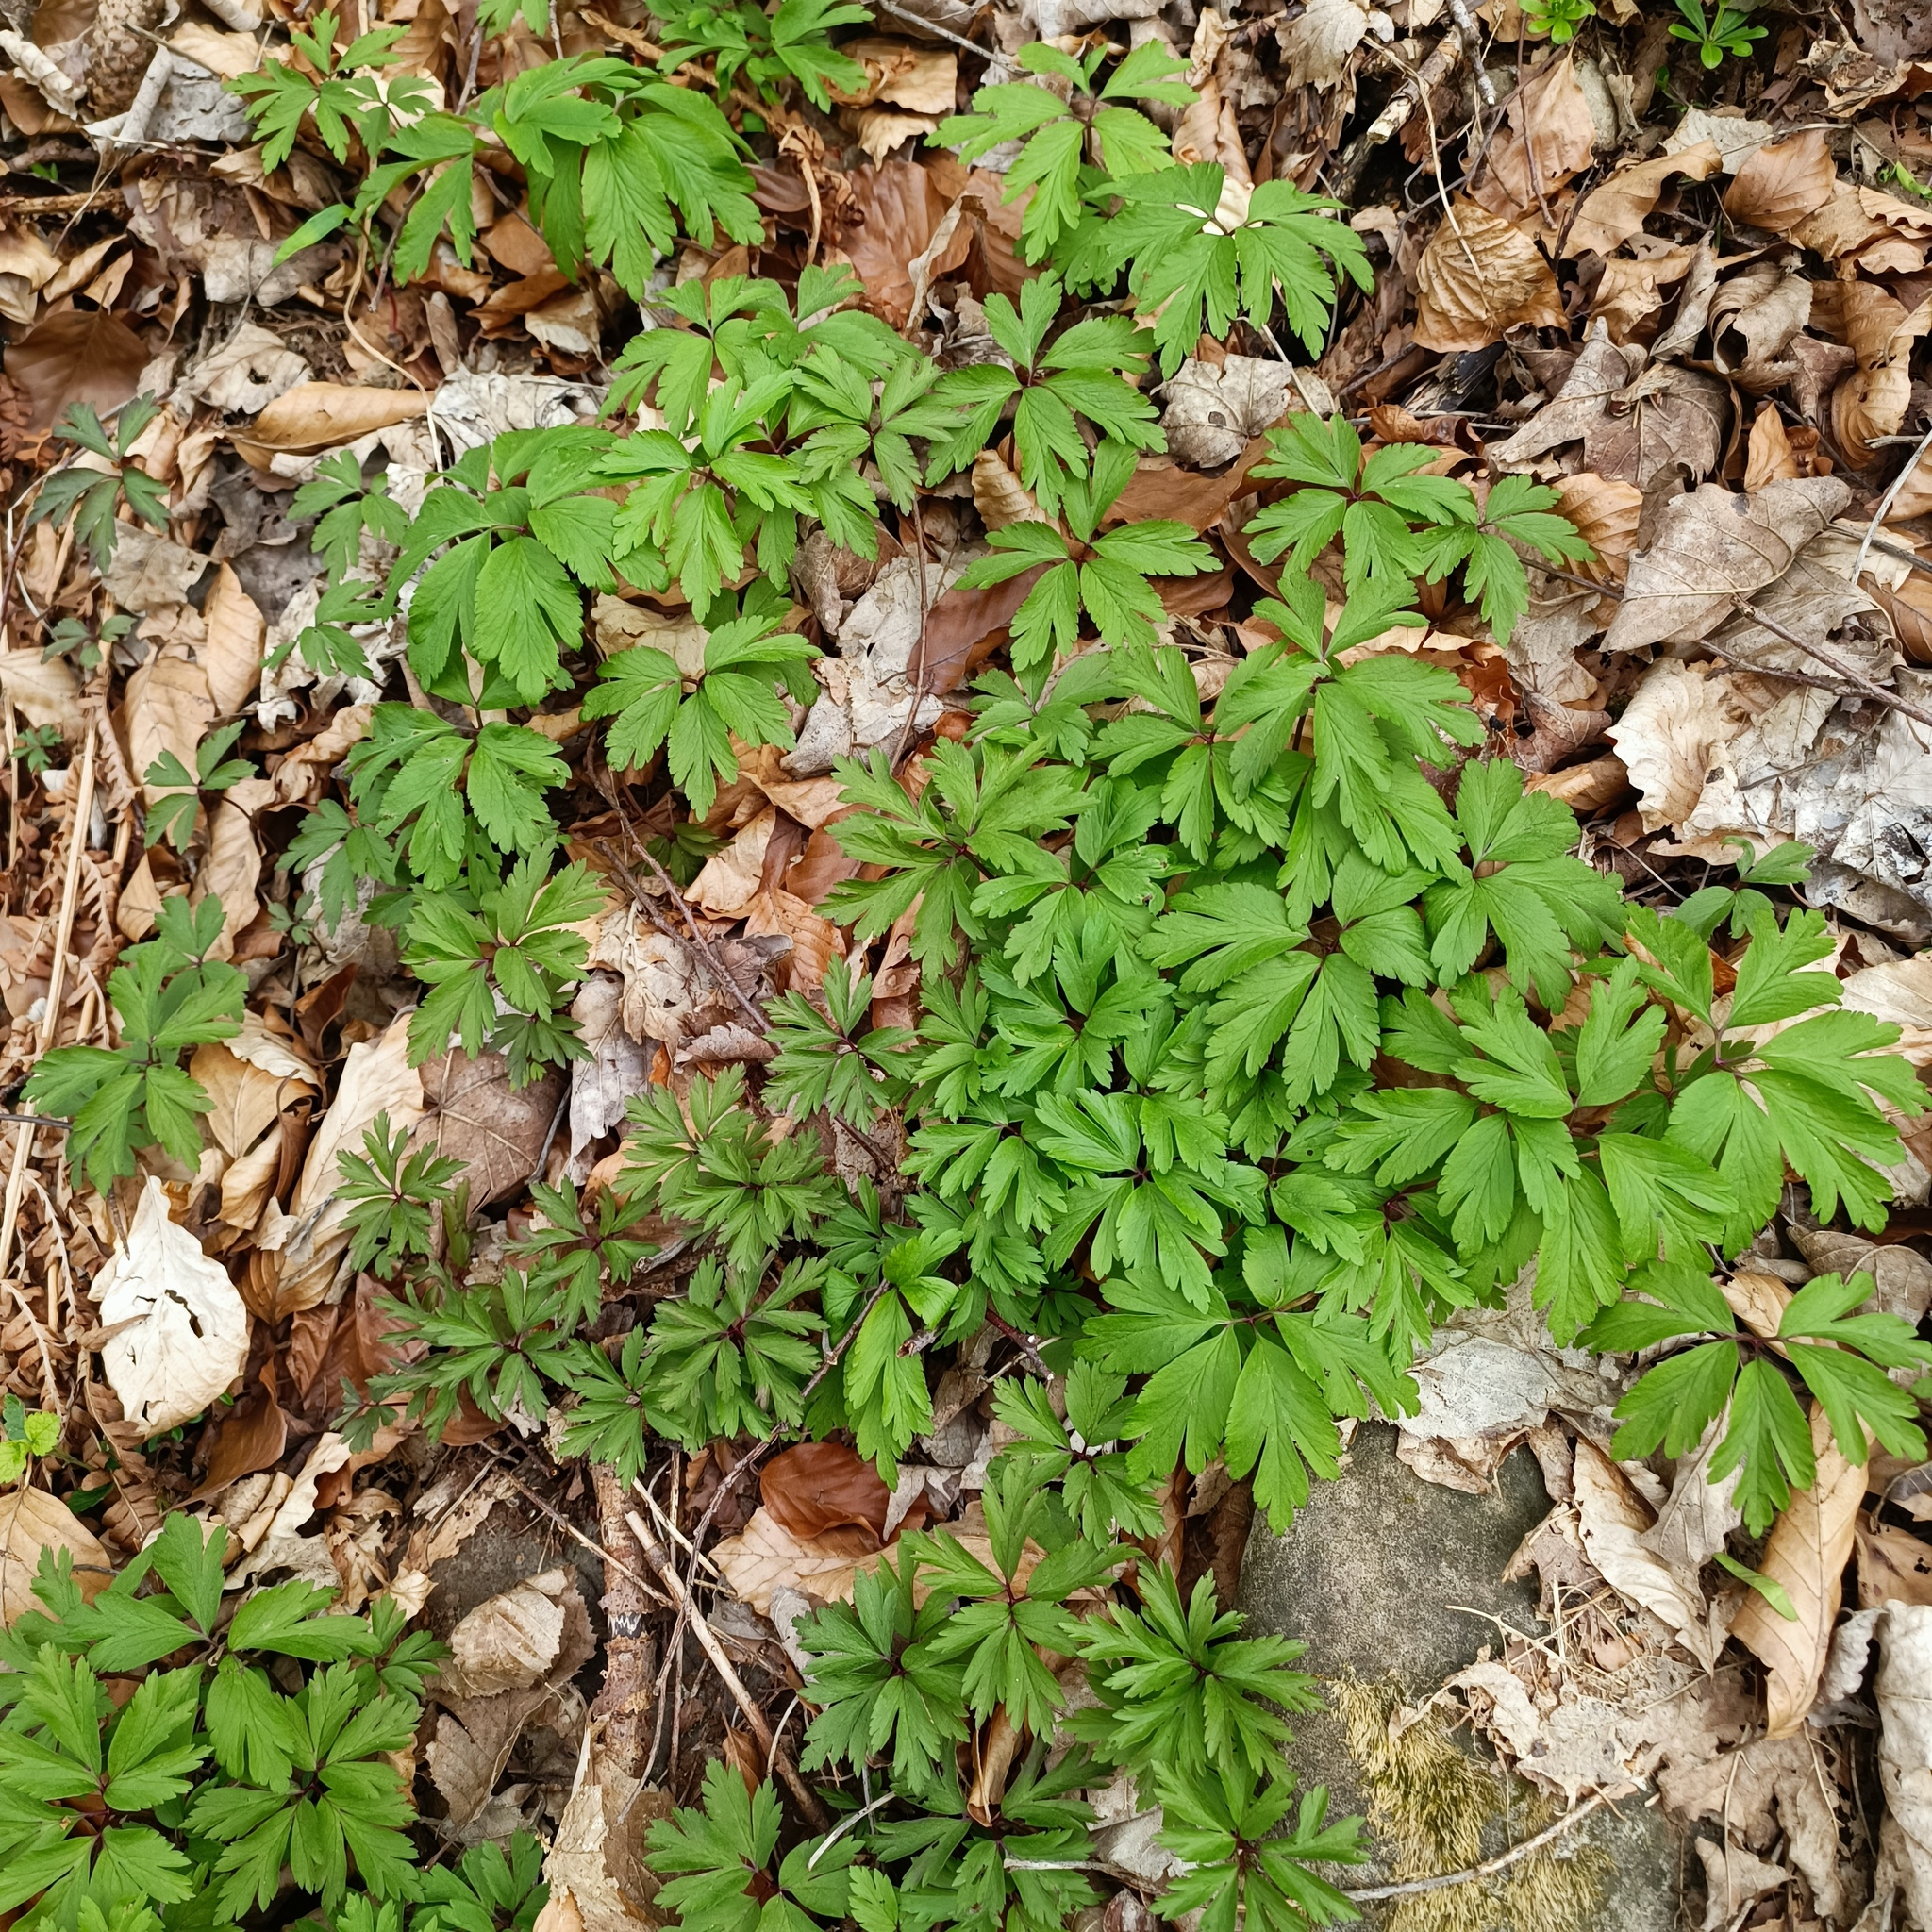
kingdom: Plantae
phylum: Tracheophyta
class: Magnoliopsida
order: Ranunculales
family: Ranunculaceae
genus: Anemone
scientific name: Anemone nemorosa
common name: Wood anemone
